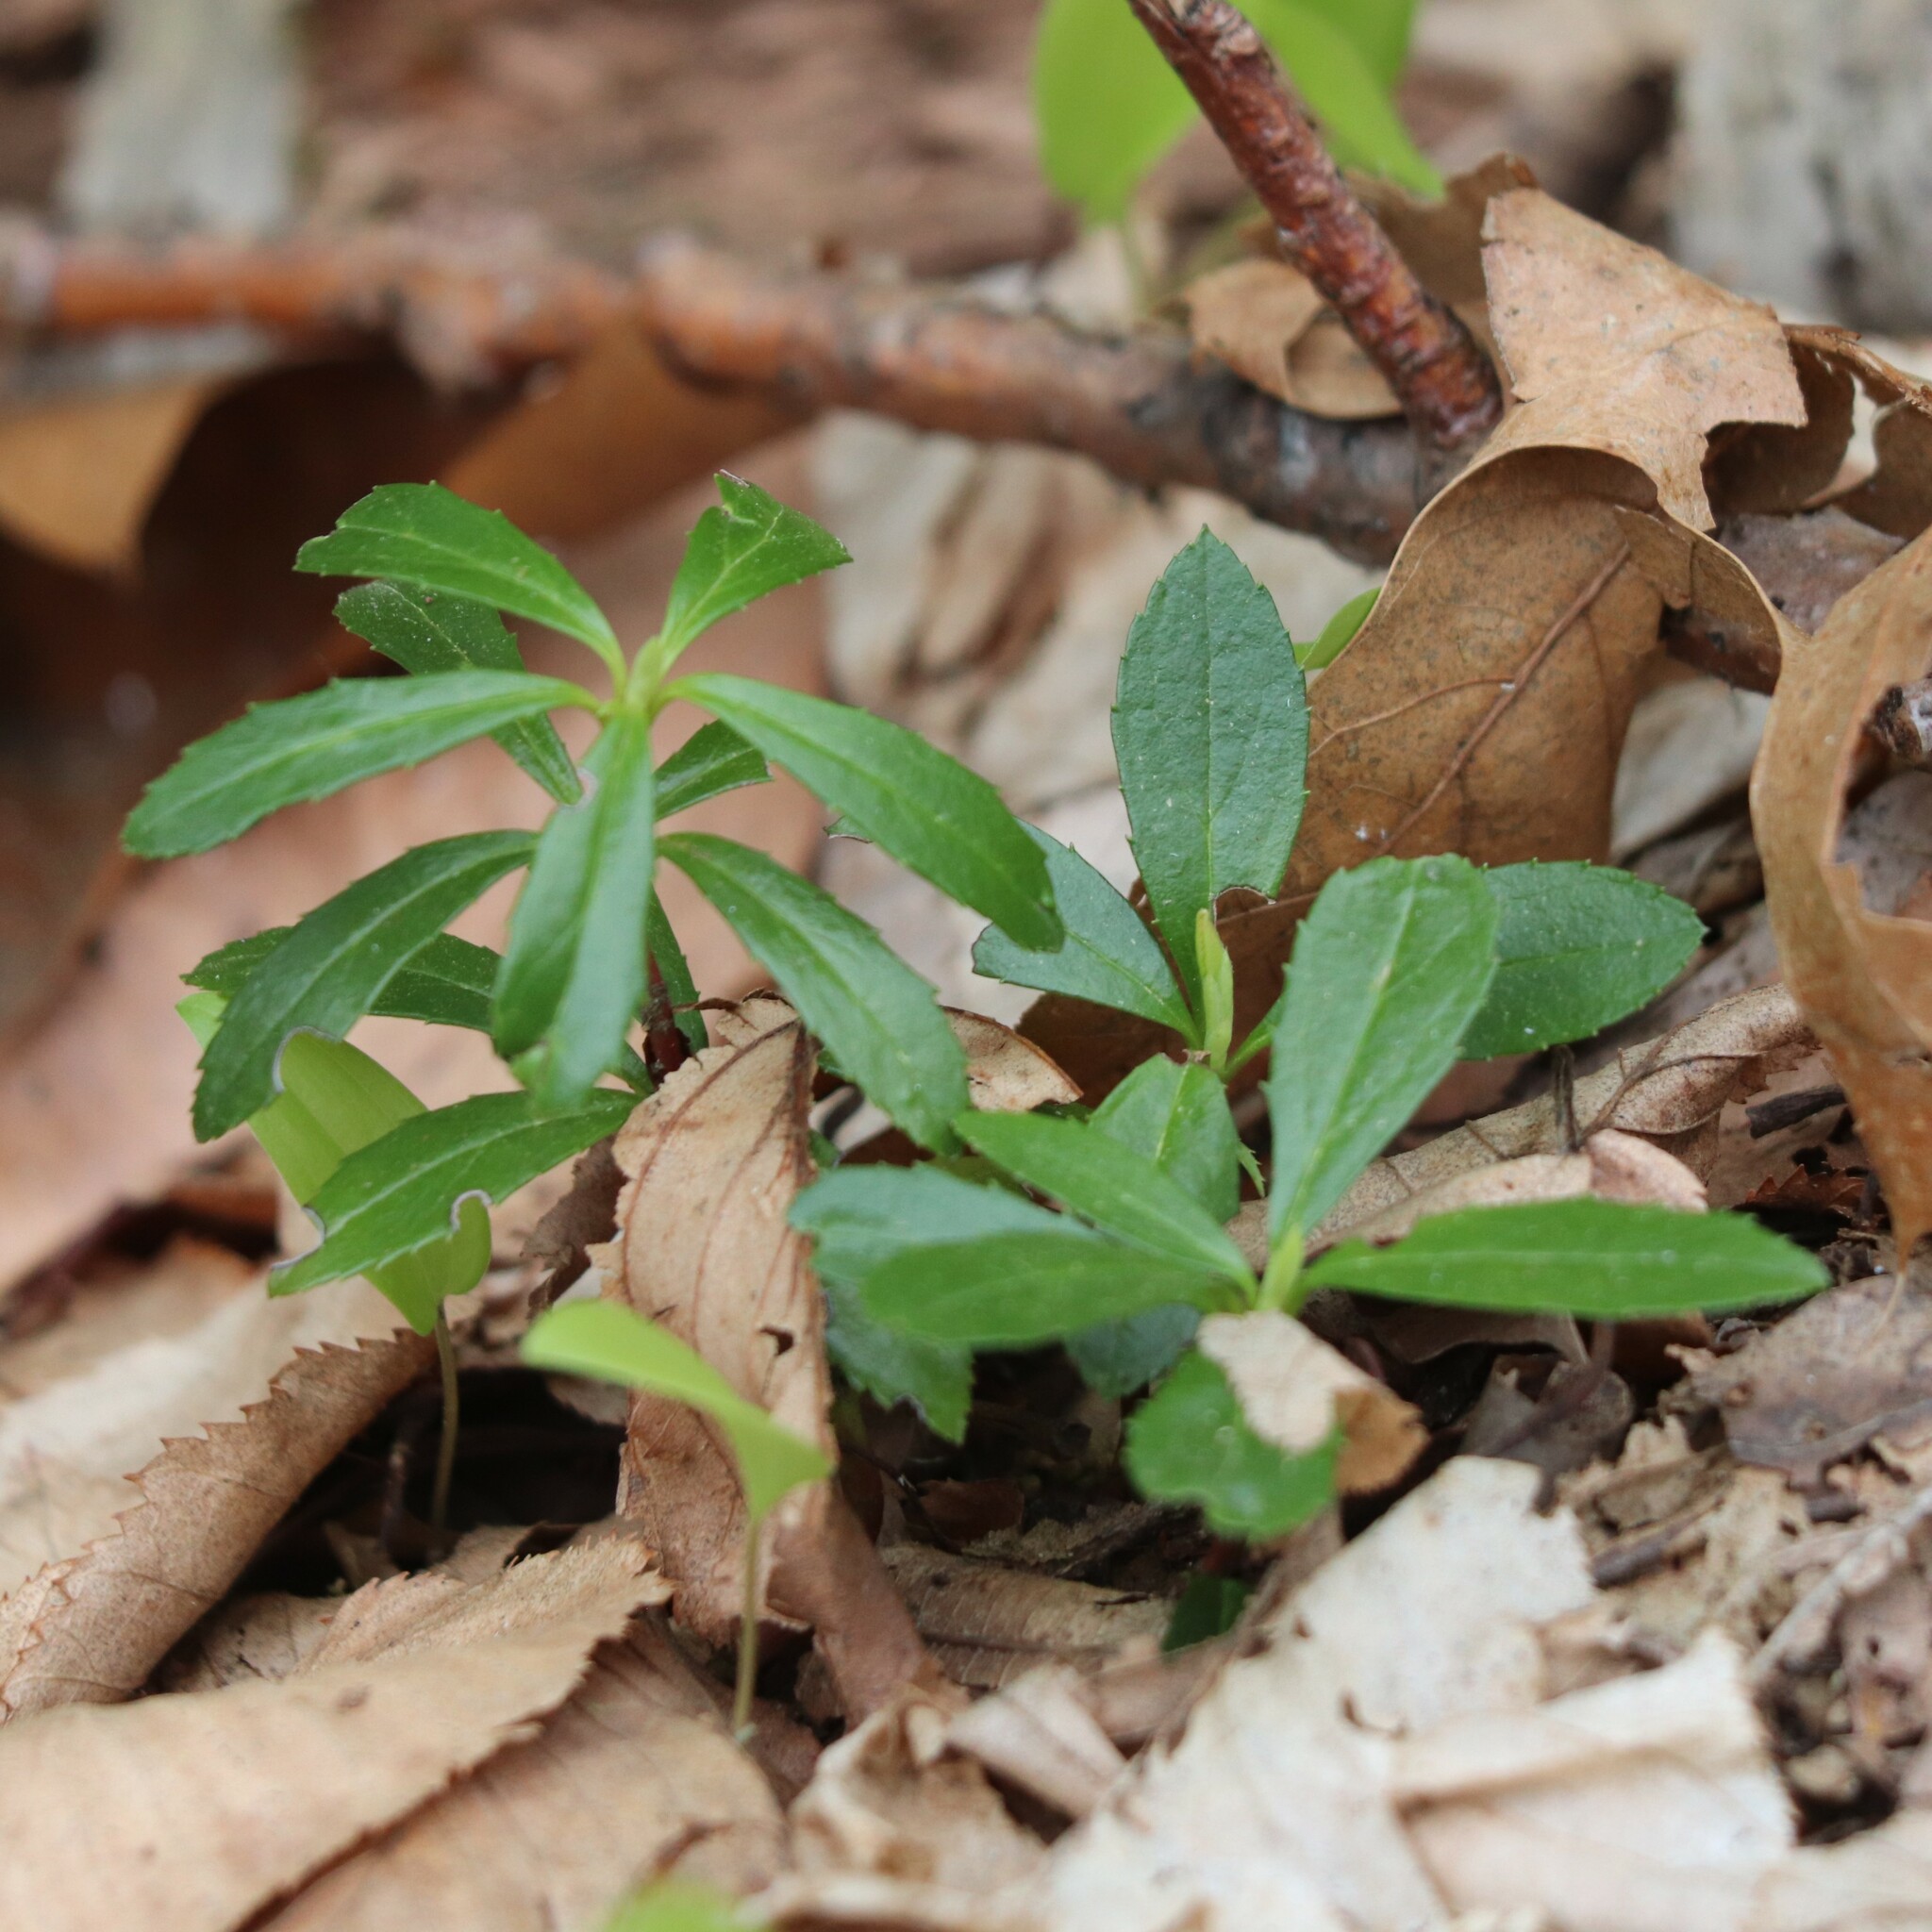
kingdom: Plantae
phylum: Tracheophyta
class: Magnoliopsida
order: Ericales
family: Ericaceae
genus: Chimaphila
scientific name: Chimaphila umbellata
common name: Pipsissewa
